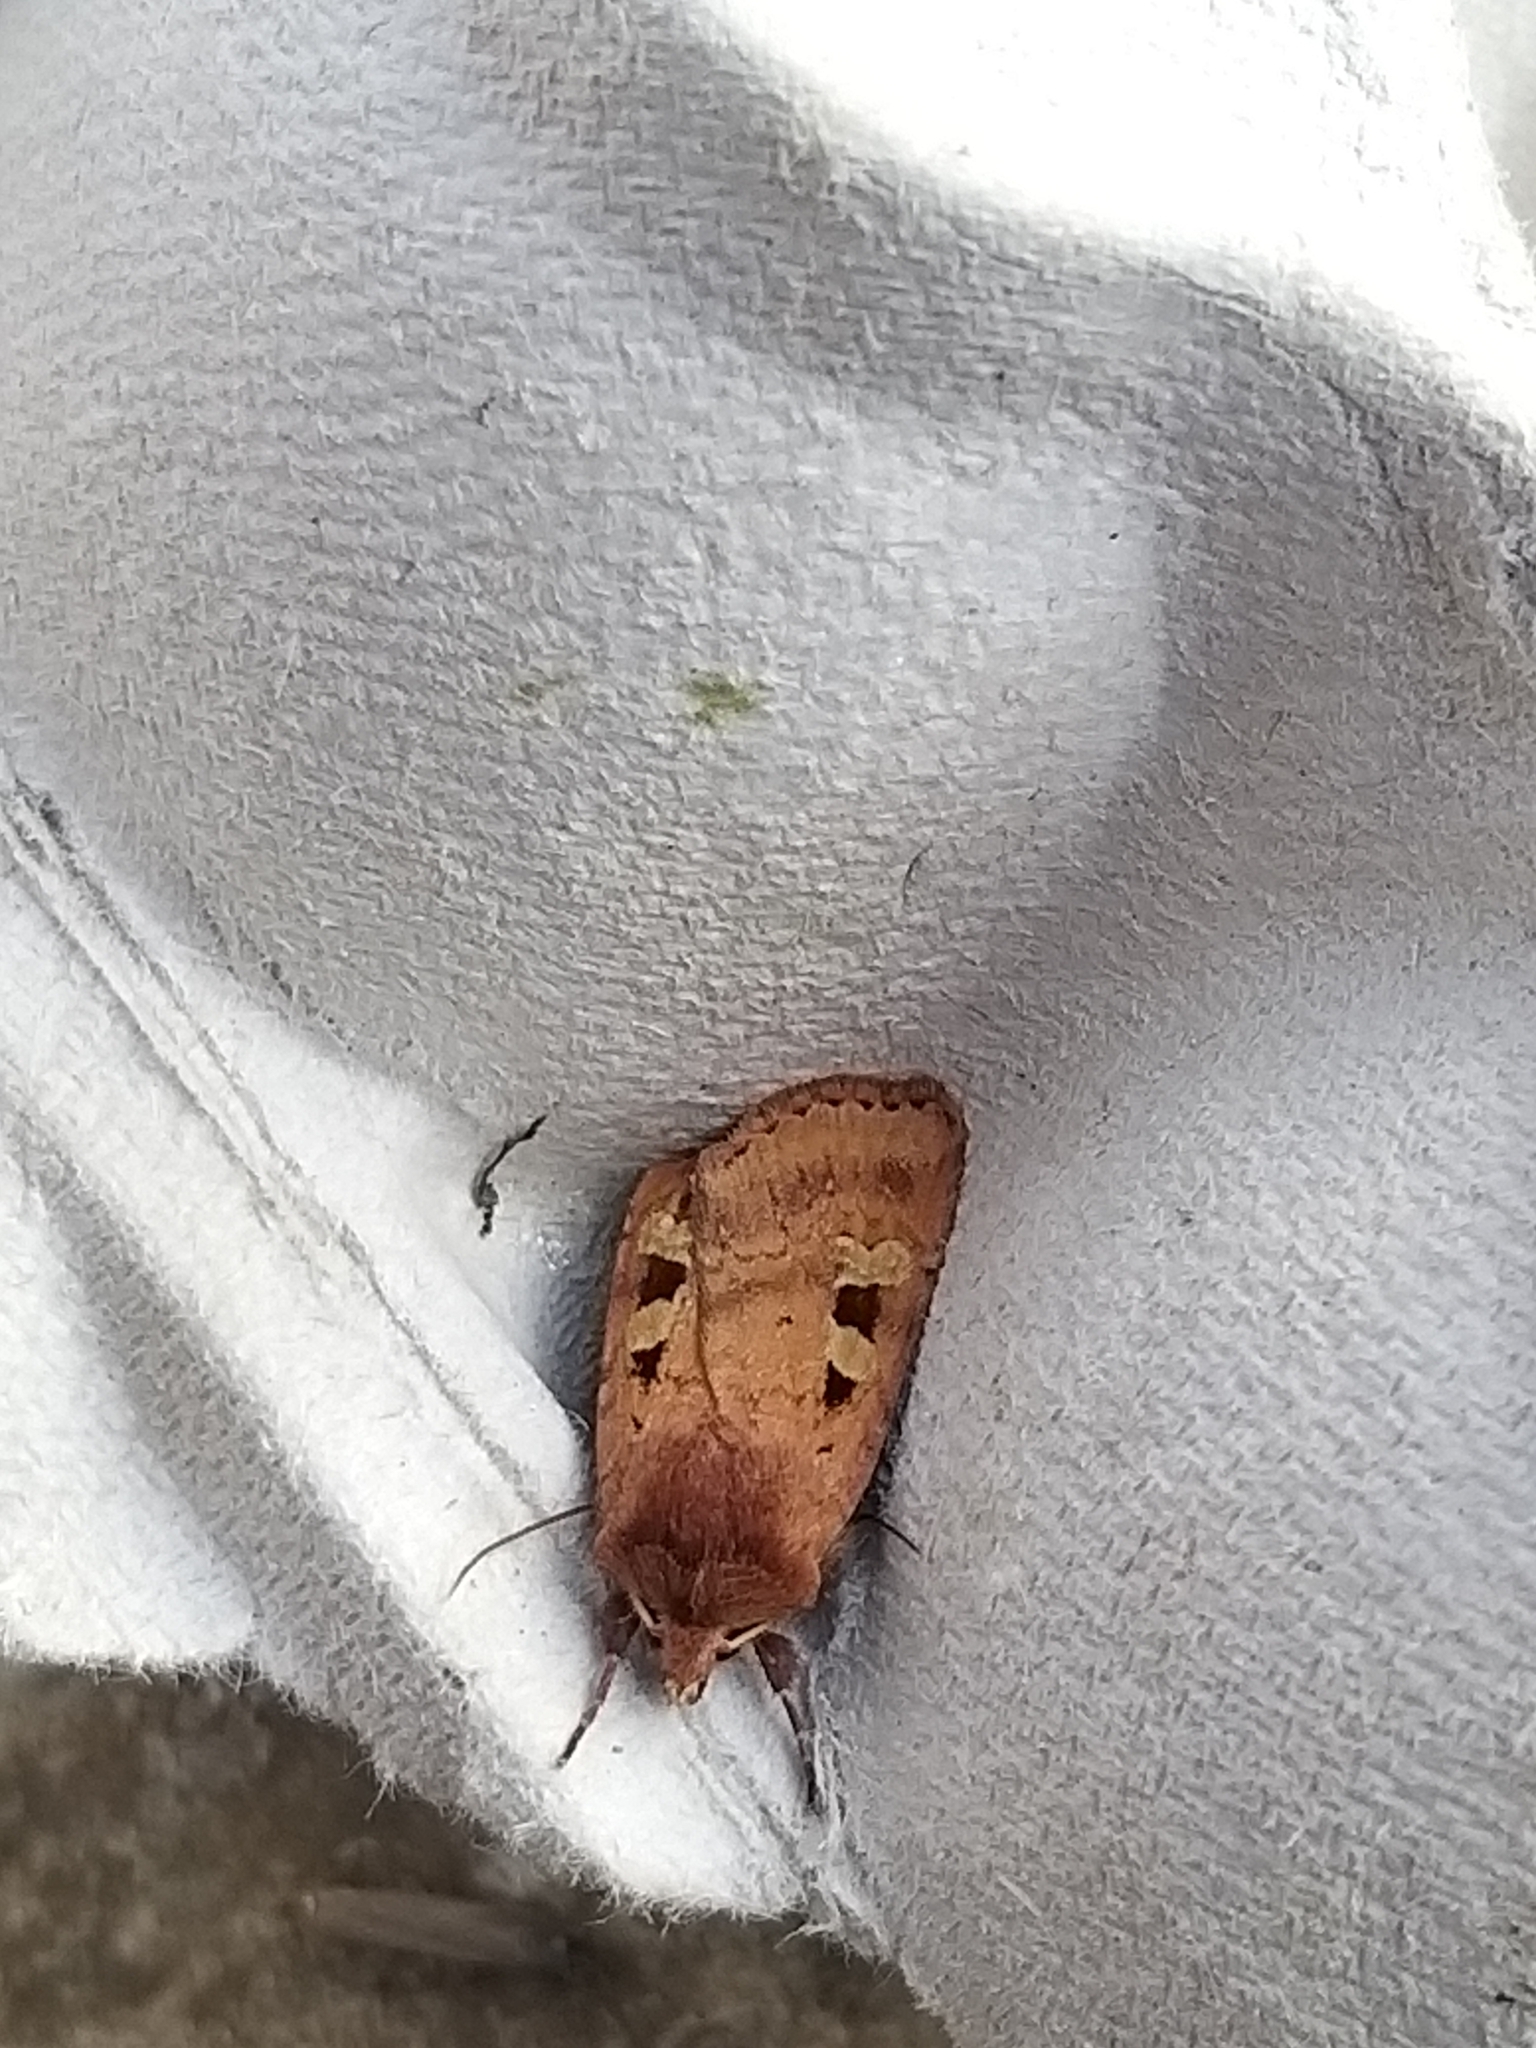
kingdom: Animalia
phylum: Arthropoda
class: Insecta
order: Lepidoptera
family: Noctuidae
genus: Diarsia
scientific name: Diarsia mendica
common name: Ingrailed clay
